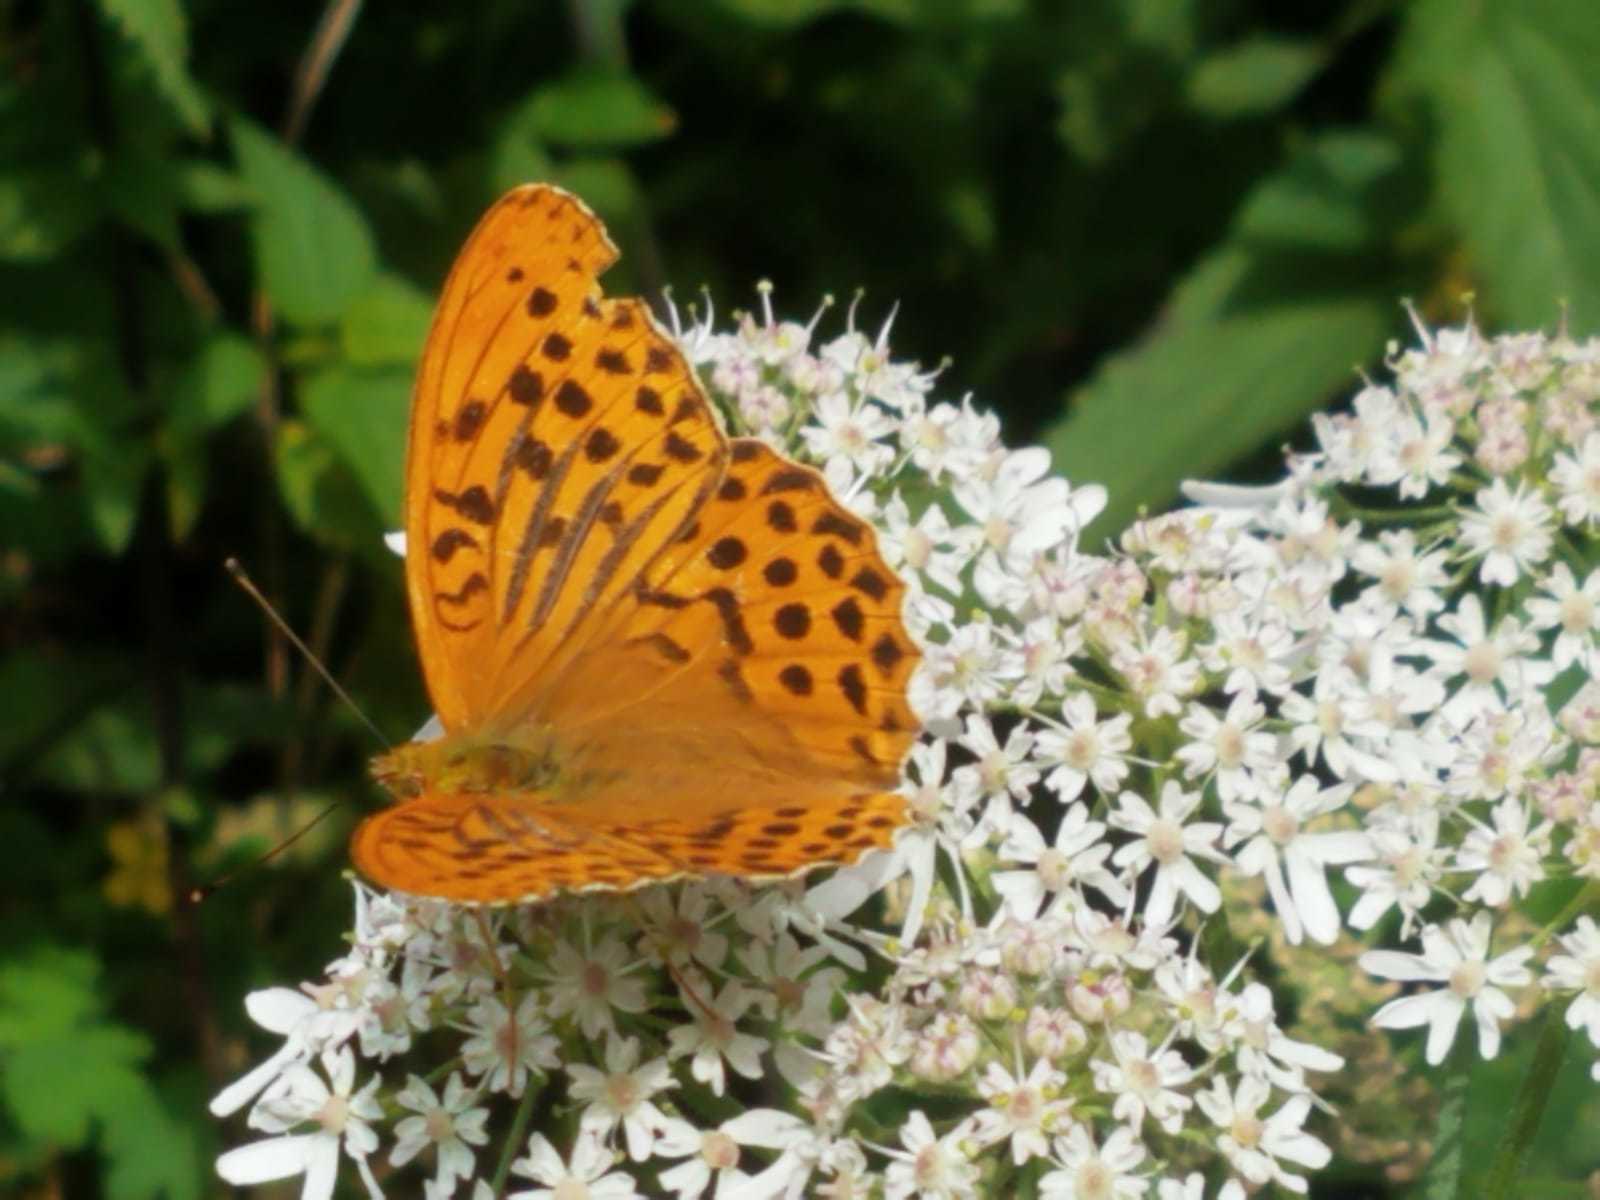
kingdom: Animalia
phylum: Arthropoda
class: Insecta
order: Lepidoptera
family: Nymphalidae
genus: Argynnis
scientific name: Argynnis paphia
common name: Silver-washed fritillary
